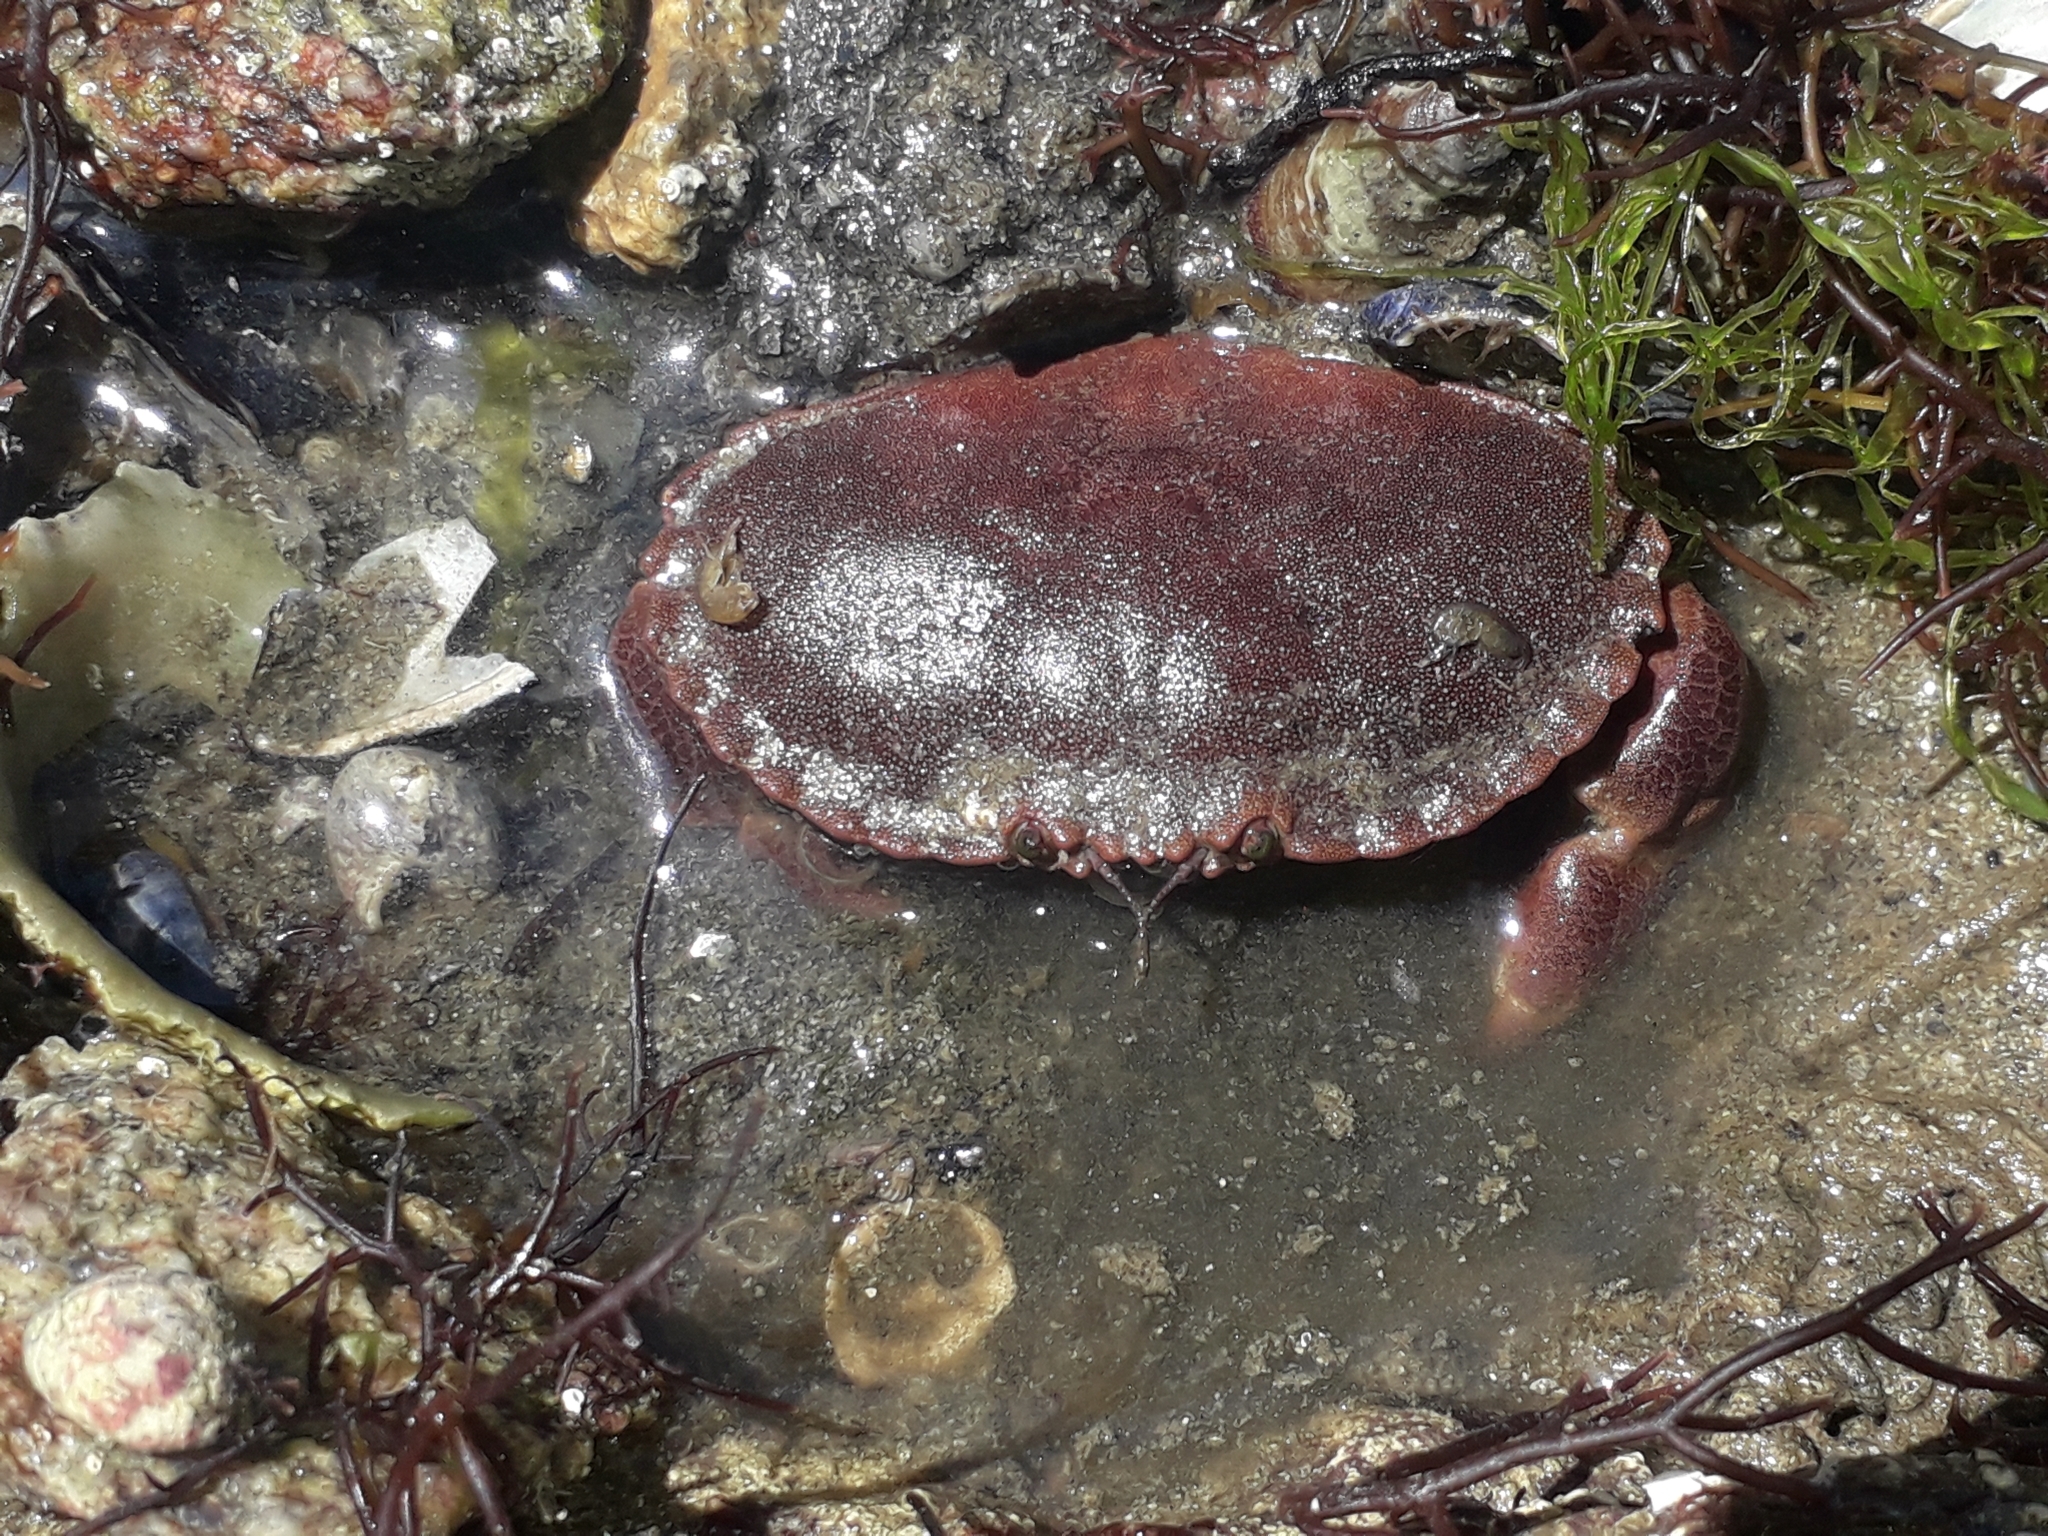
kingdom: Animalia
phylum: Arthropoda
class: Malacostraca
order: Decapoda
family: Cancridae
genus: Cancer
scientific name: Cancer pagurus
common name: Edible crab
